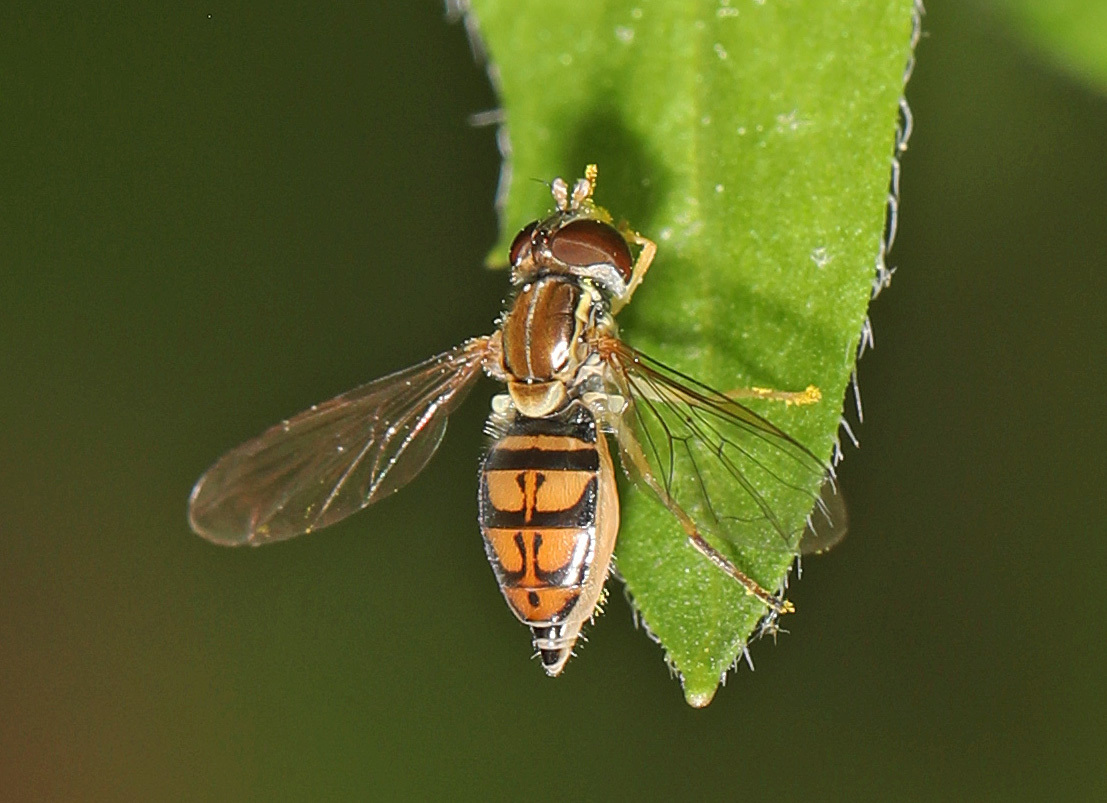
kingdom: Animalia
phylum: Arthropoda
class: Insecta
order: Diptera
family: Syrphidae
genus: Toxomerus
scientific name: Toxomerus marginatus
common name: Syrphid fly
